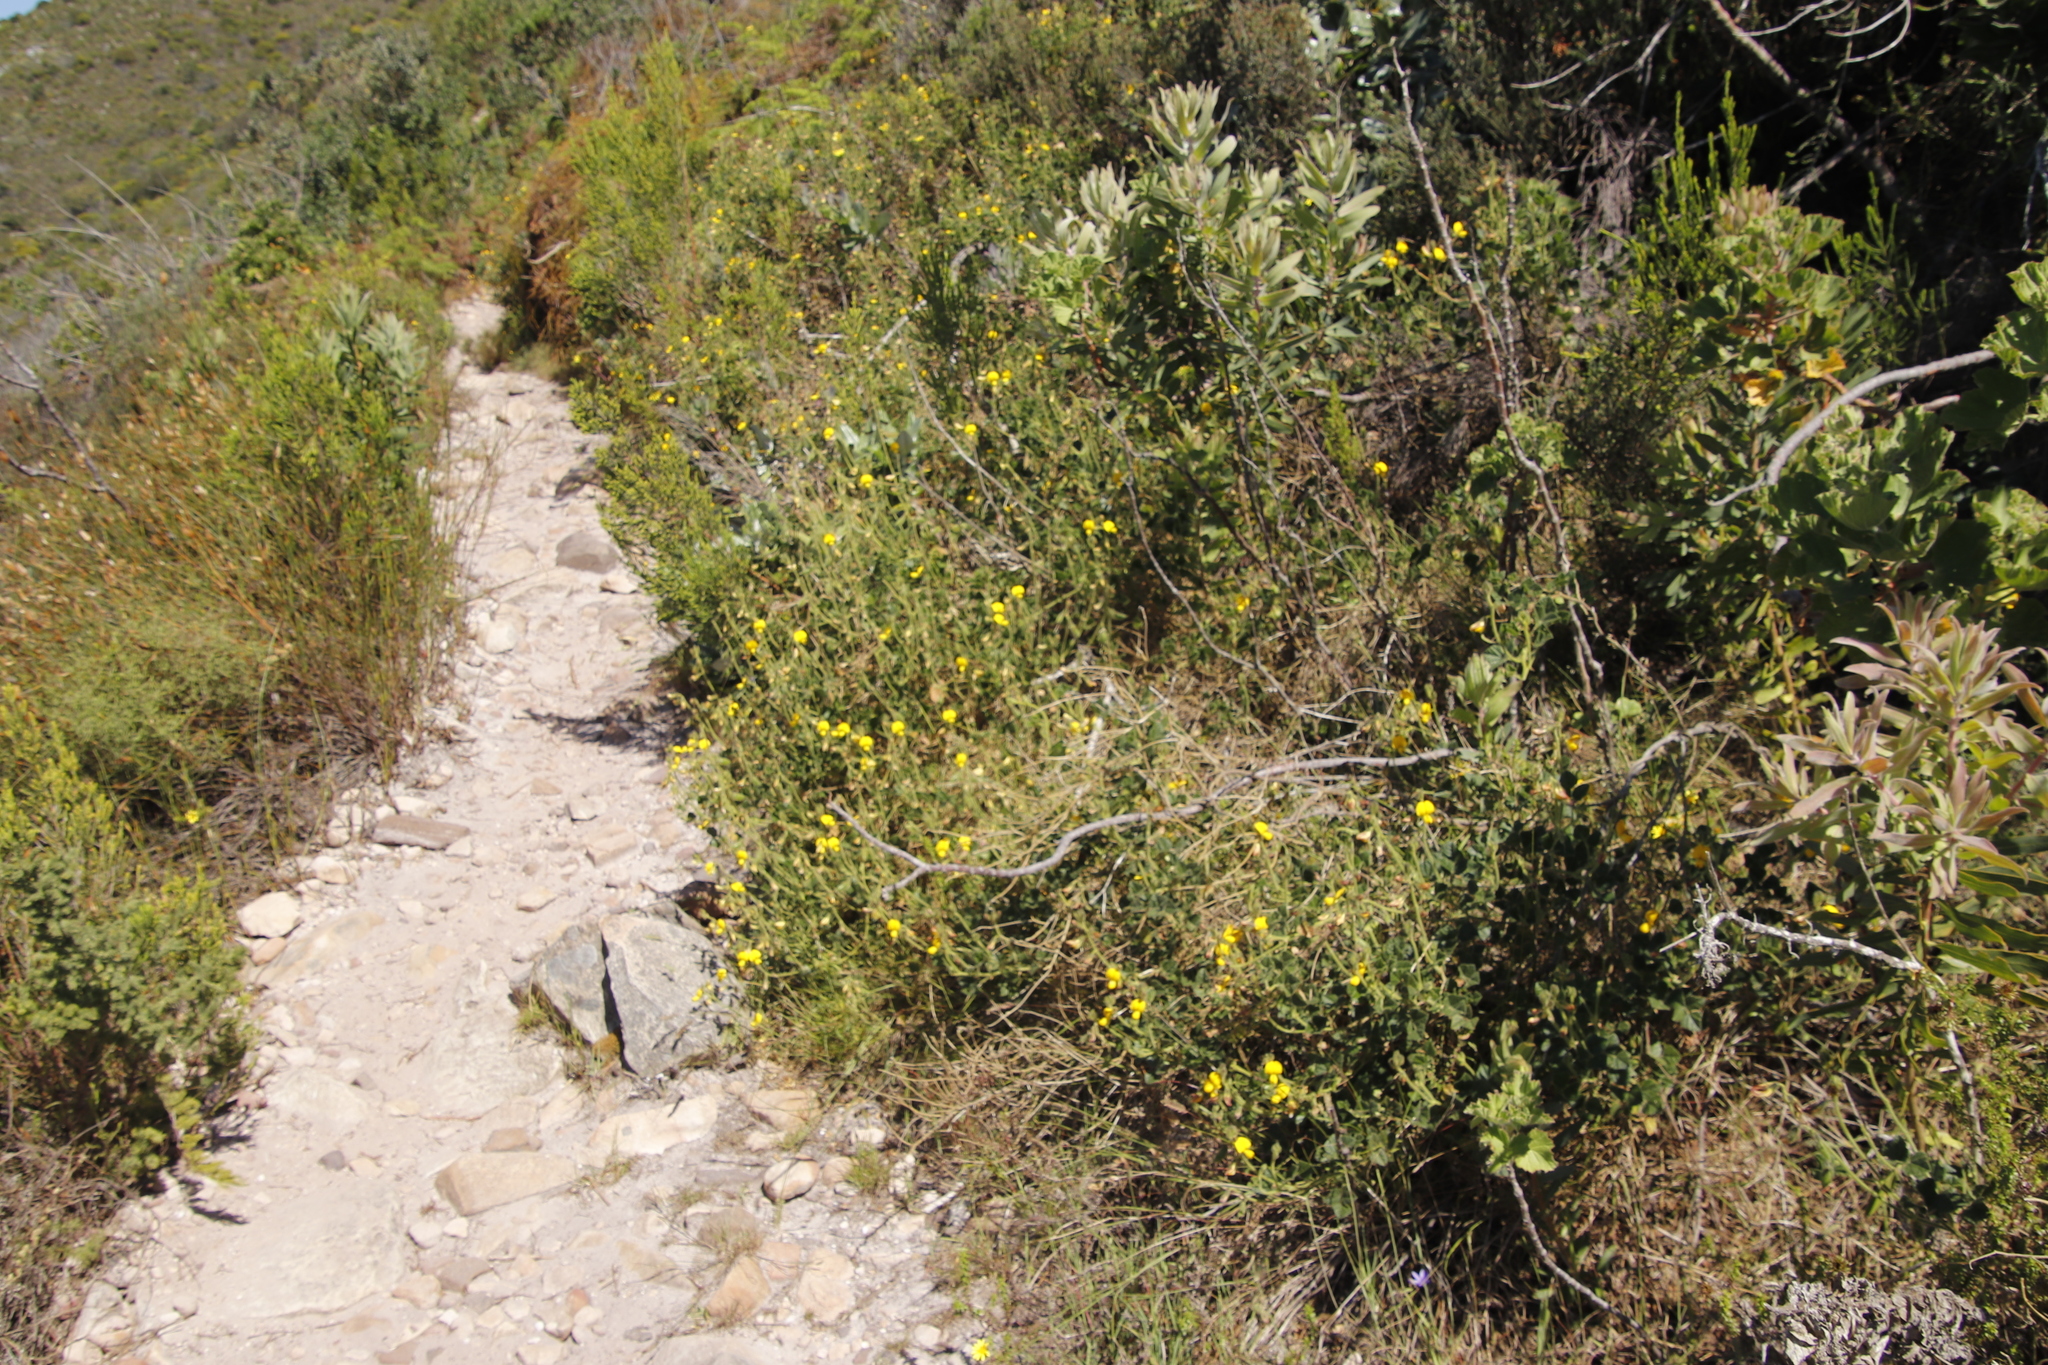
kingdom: Plantae
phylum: Tracheophyta
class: Magnoliopsida
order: Fabales
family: Fabaceae
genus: Bolusafra
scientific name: Bolusafra bituminosa
